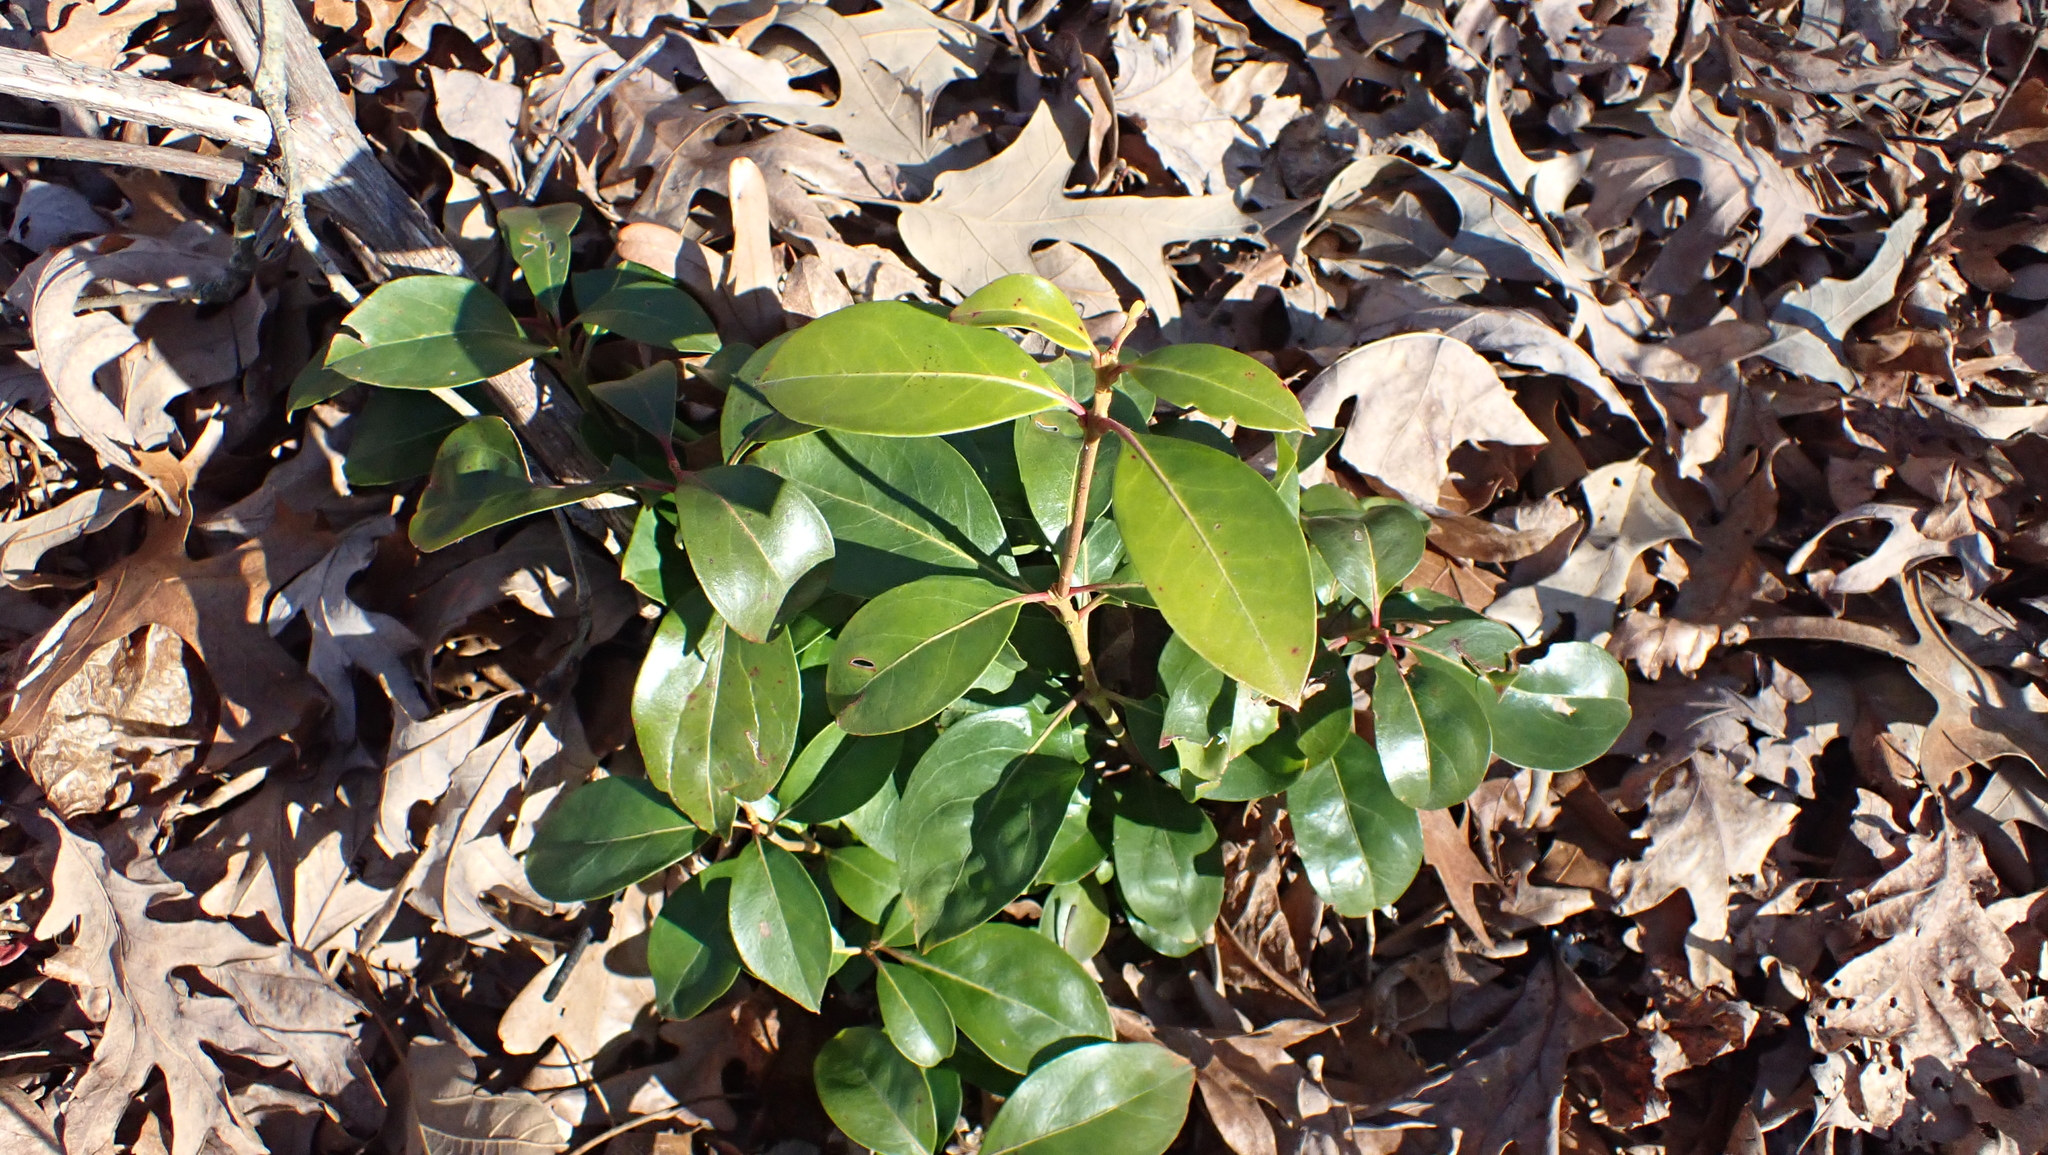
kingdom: Plantae
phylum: Tracheophyta
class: Magnoliopsida
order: Ericales
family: Ericaceae
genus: Kalmia
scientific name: Kalmia latifolia
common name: Mountain-laurel
